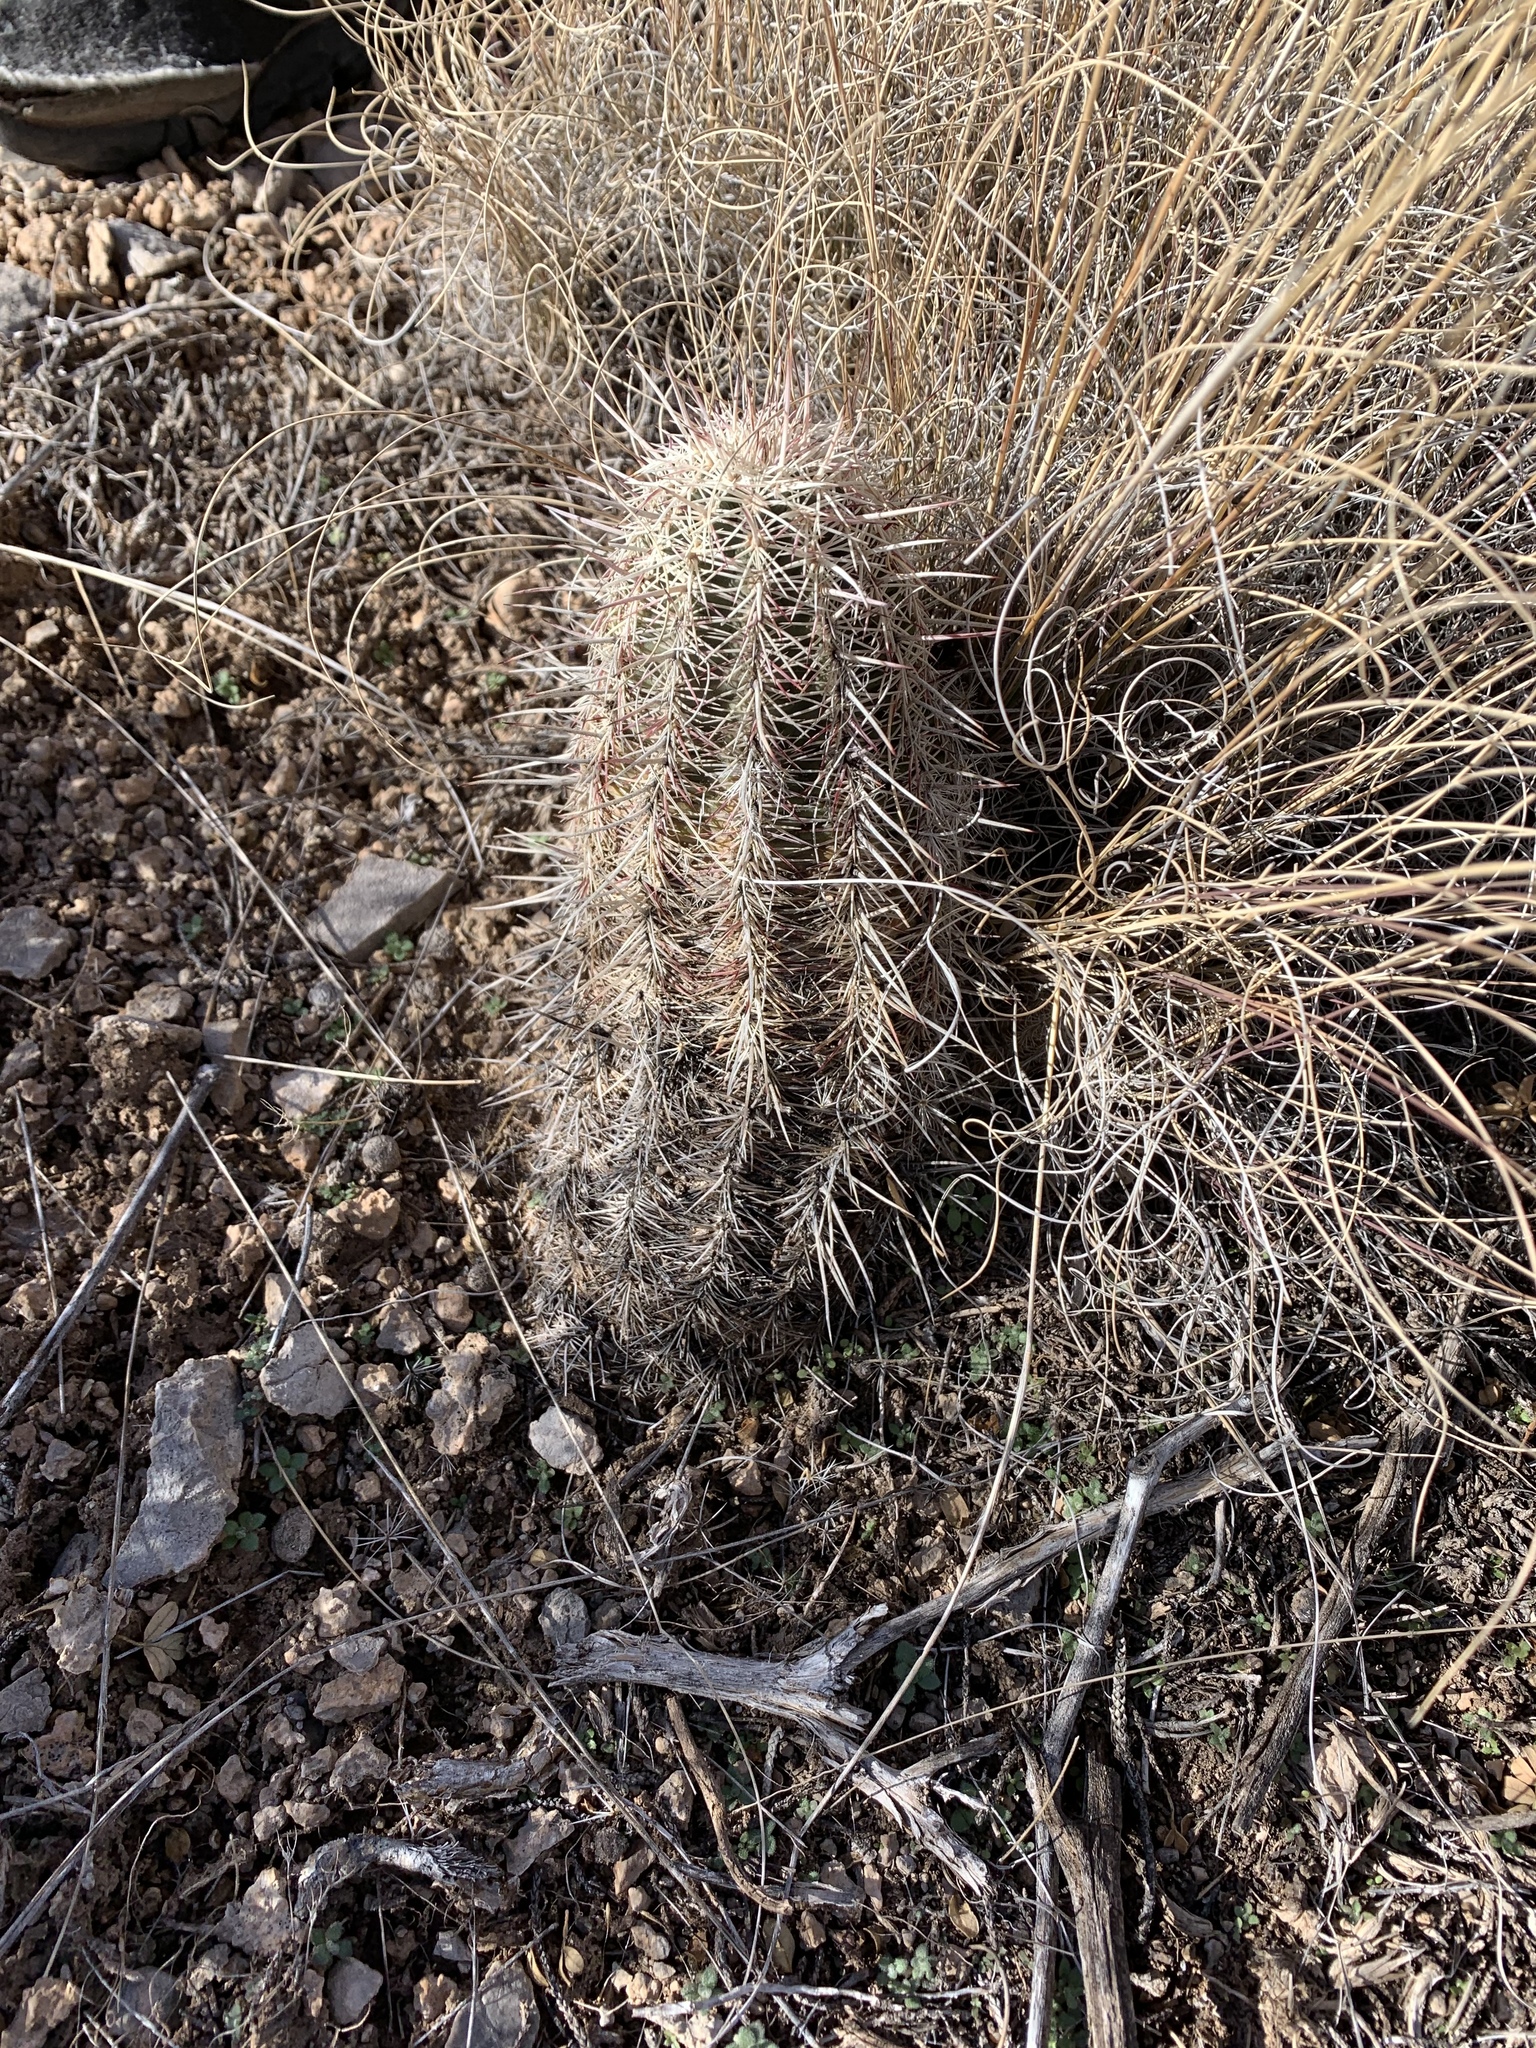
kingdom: Plantae
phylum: Tracheophyta
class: Magnoliopsida
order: Caryophyllales
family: Cactaceae
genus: Echinocereus
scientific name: Echinocereus viridiflorus
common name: Nylon hedgehog cactus
